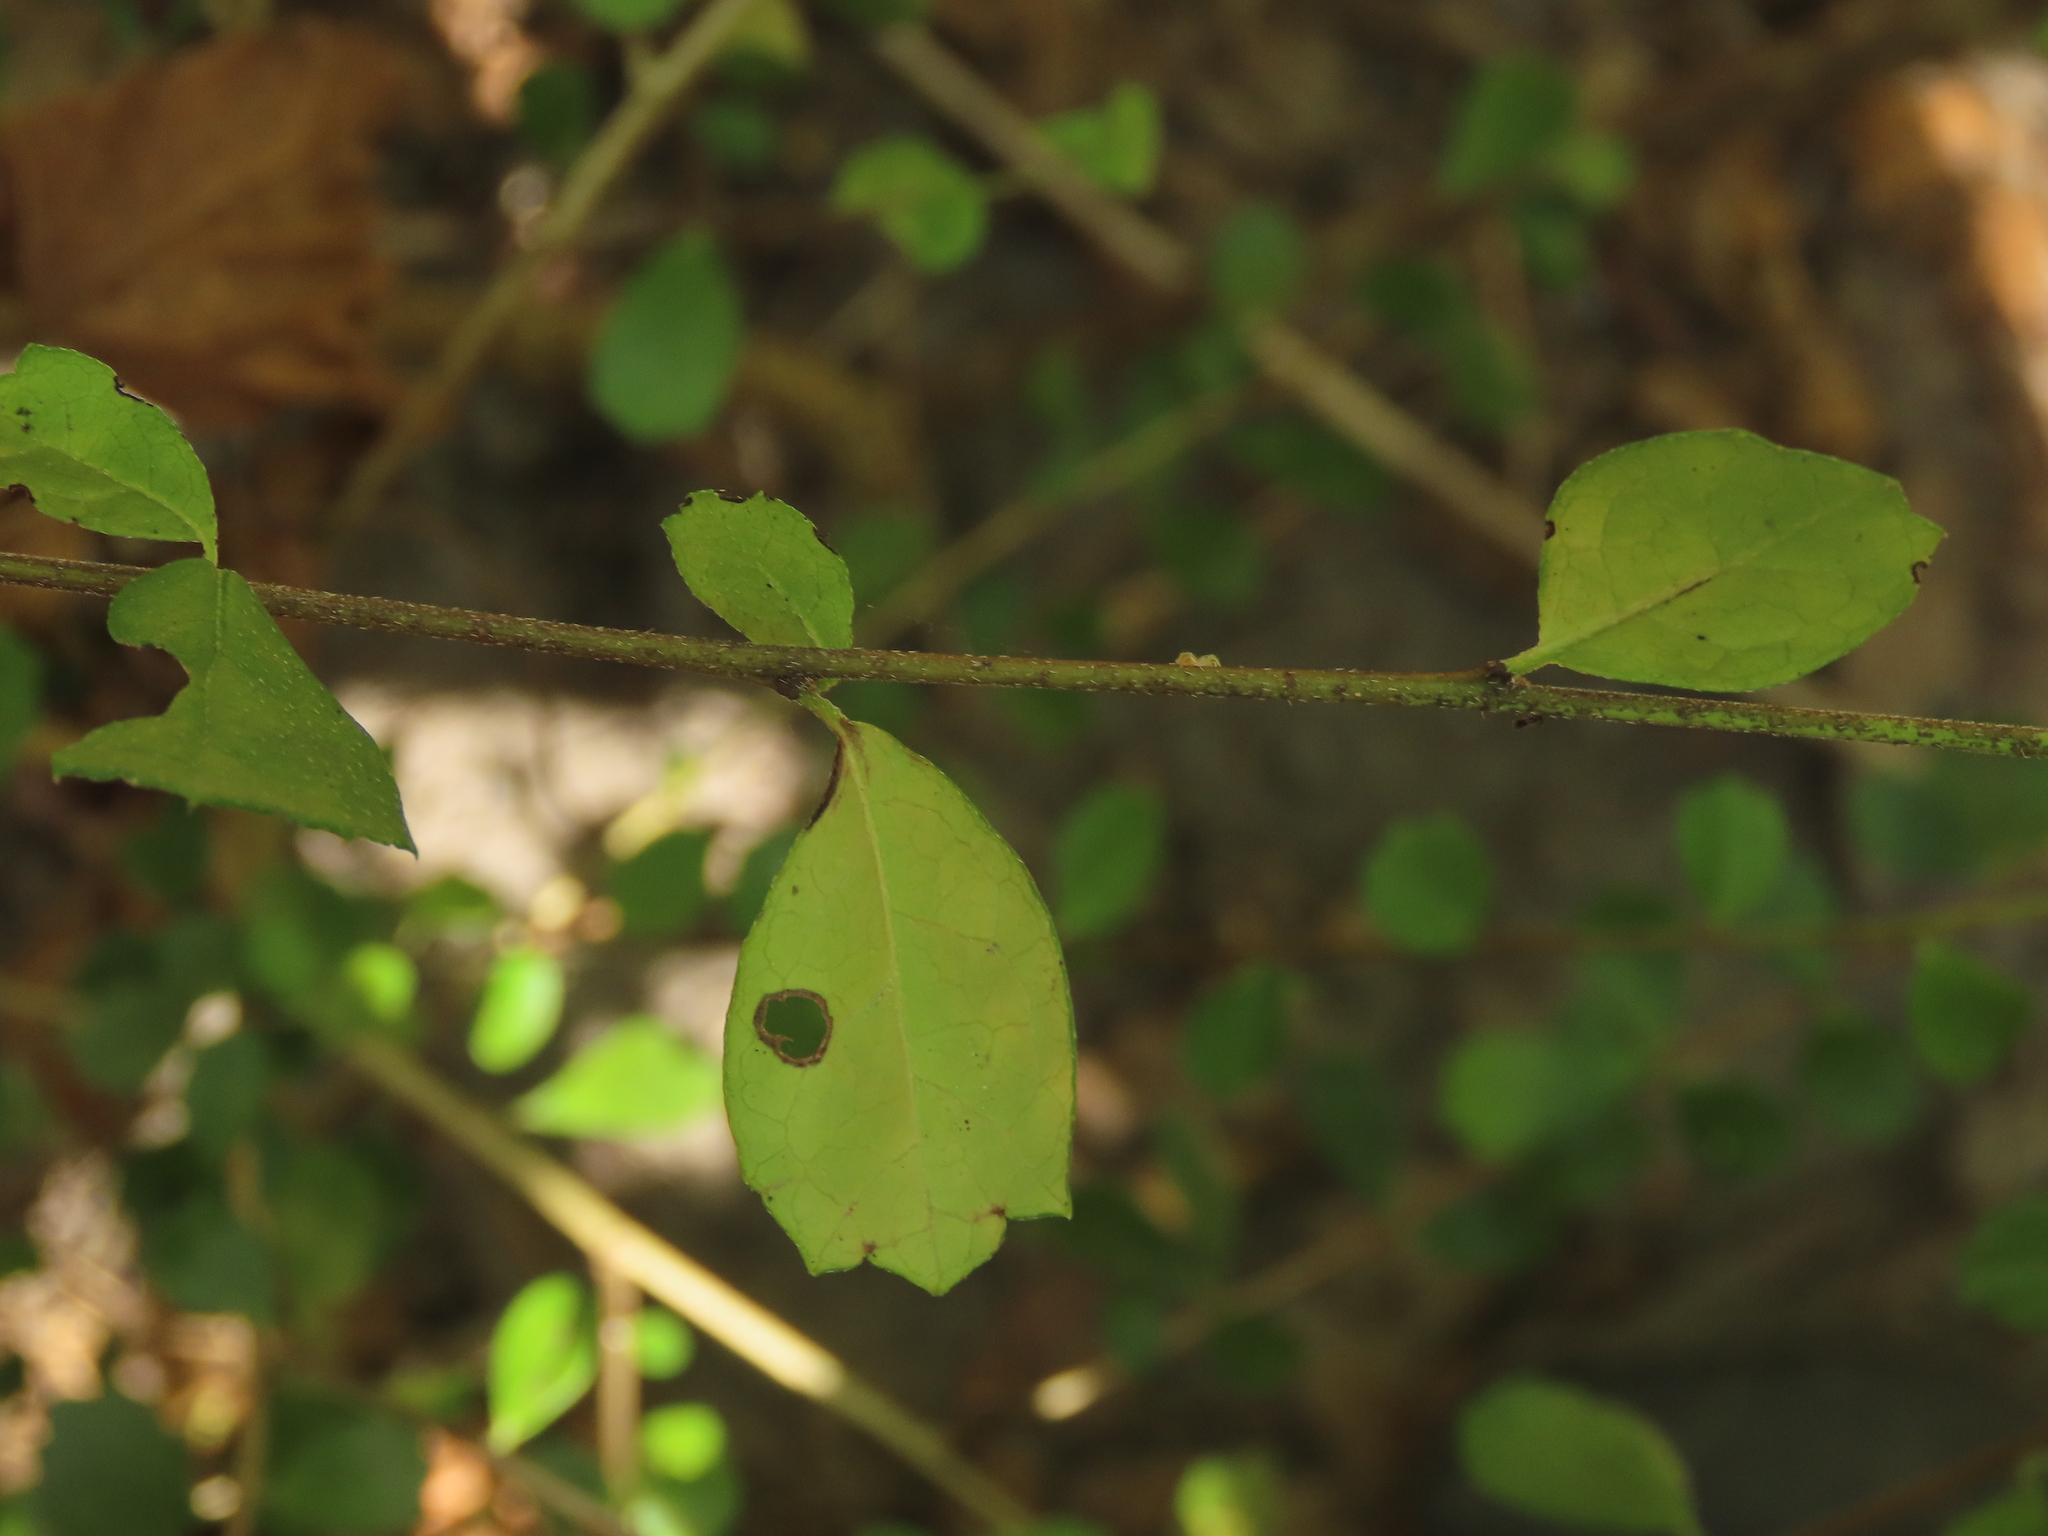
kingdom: Plantae
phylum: Tracheophyta
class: Magnoliopsida
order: Boraginales
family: Ehretiaceae
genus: Ehretia
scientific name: Ehretia microphylla
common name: Fukien-tea
